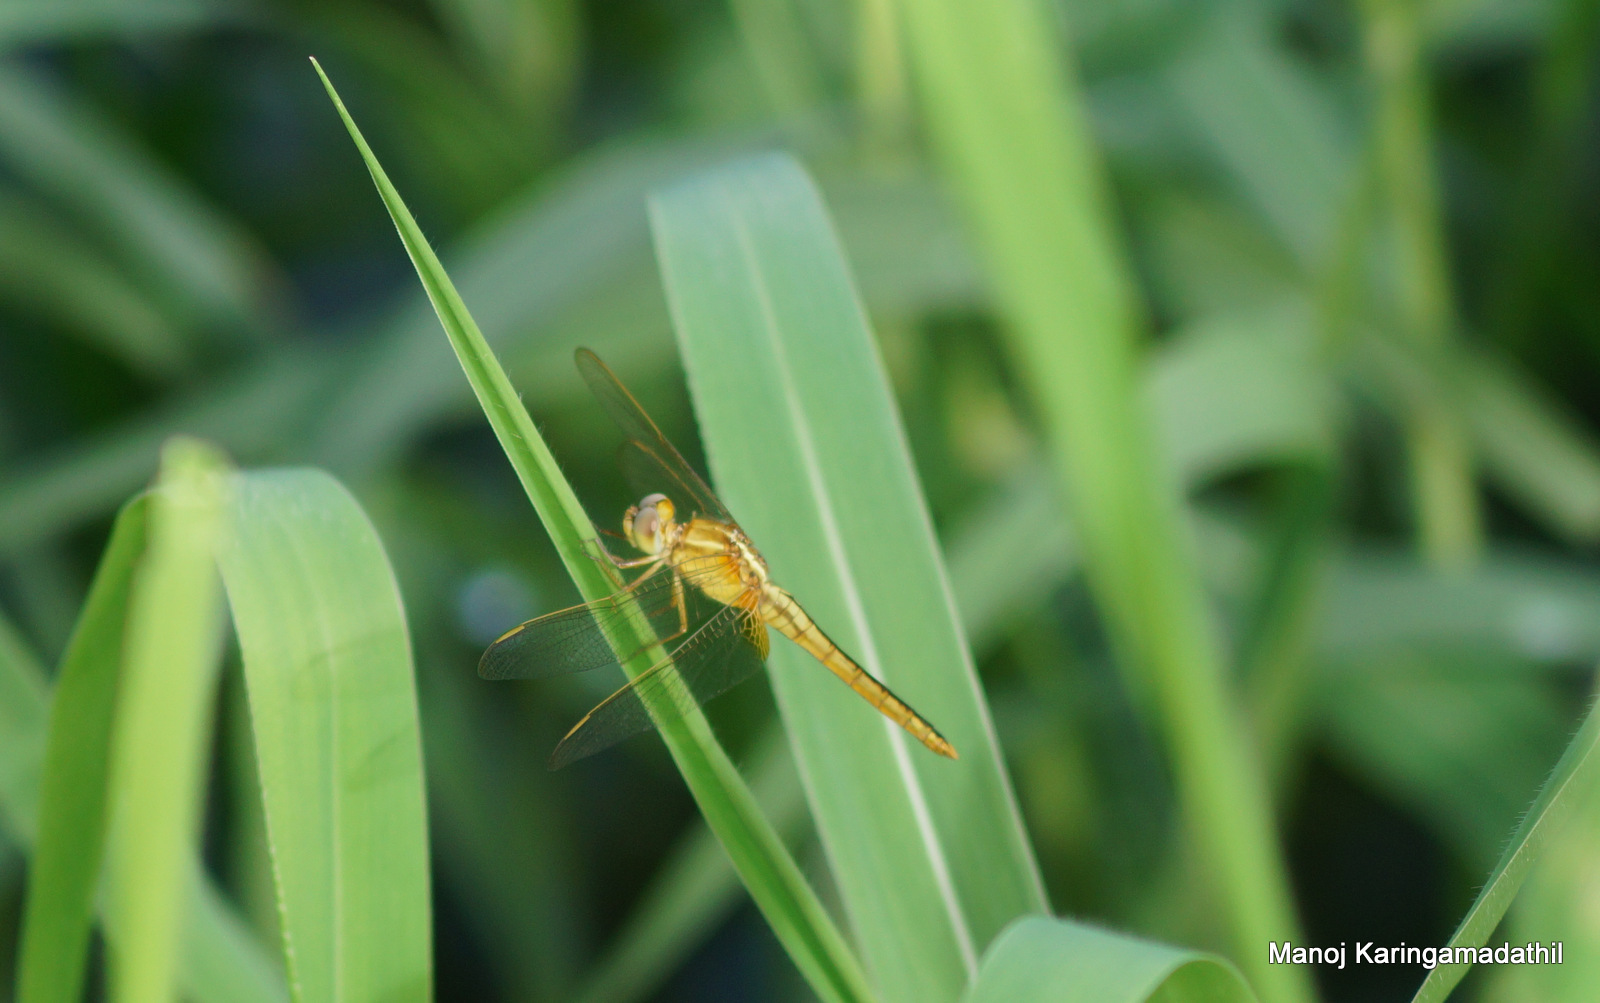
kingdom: Animalia
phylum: Arthropoda
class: Insecta
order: Odonata
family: Libellulidae
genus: Crocothemis
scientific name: Crocothemis servilia
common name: Scarlet skimmer
